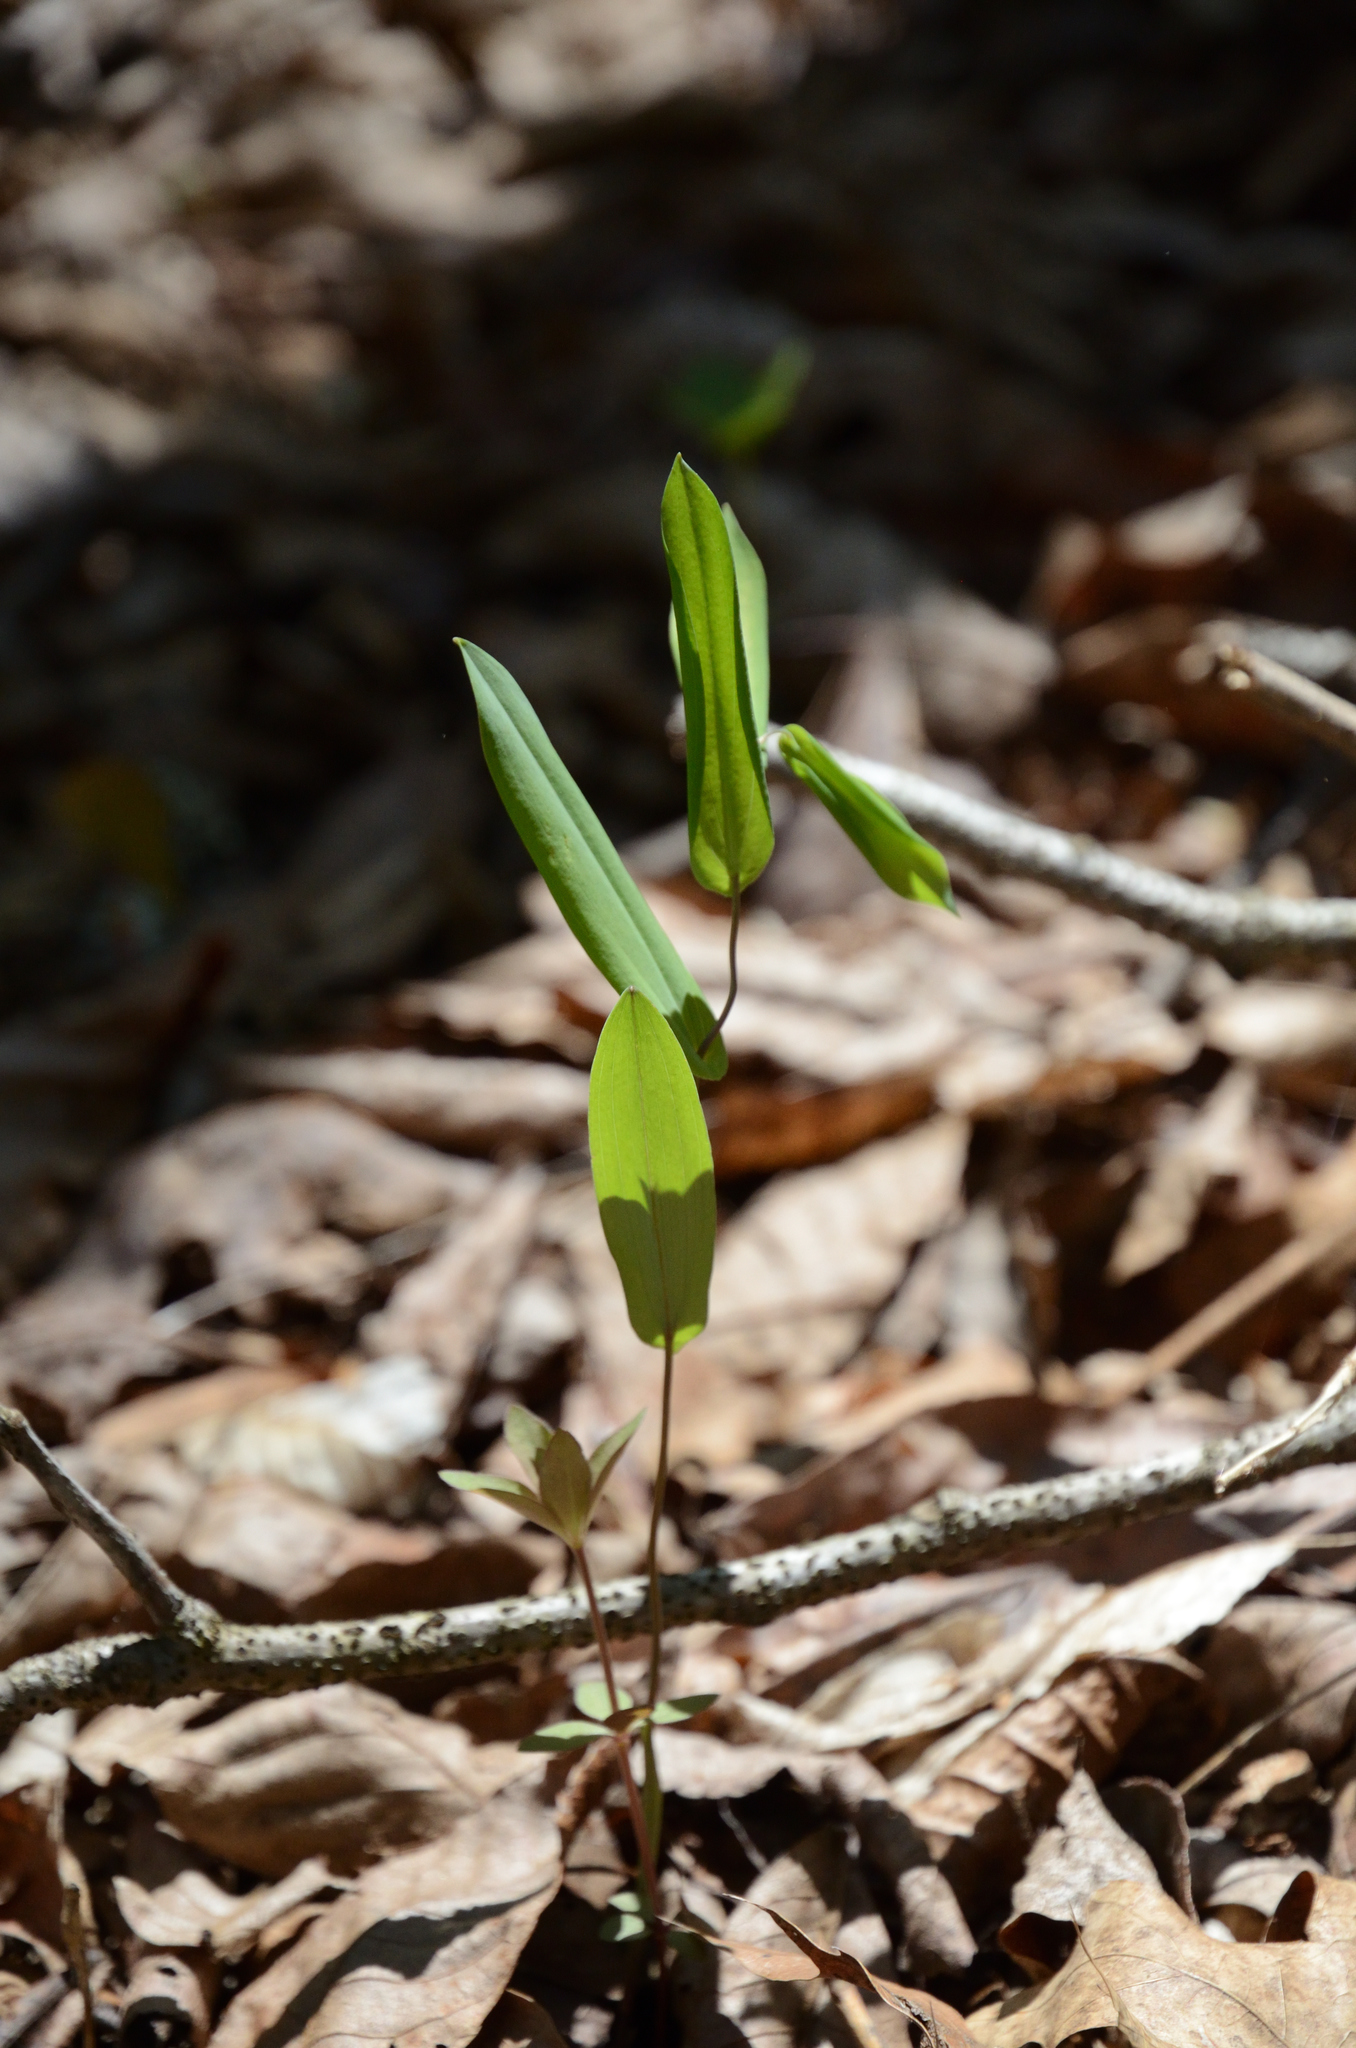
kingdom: Plantae
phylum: Tracheophyta
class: Liliopsida
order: Liliales
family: Colchicaceae
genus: Uvularia
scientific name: Uvularia perfoliata
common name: Perfoliate bellwort
